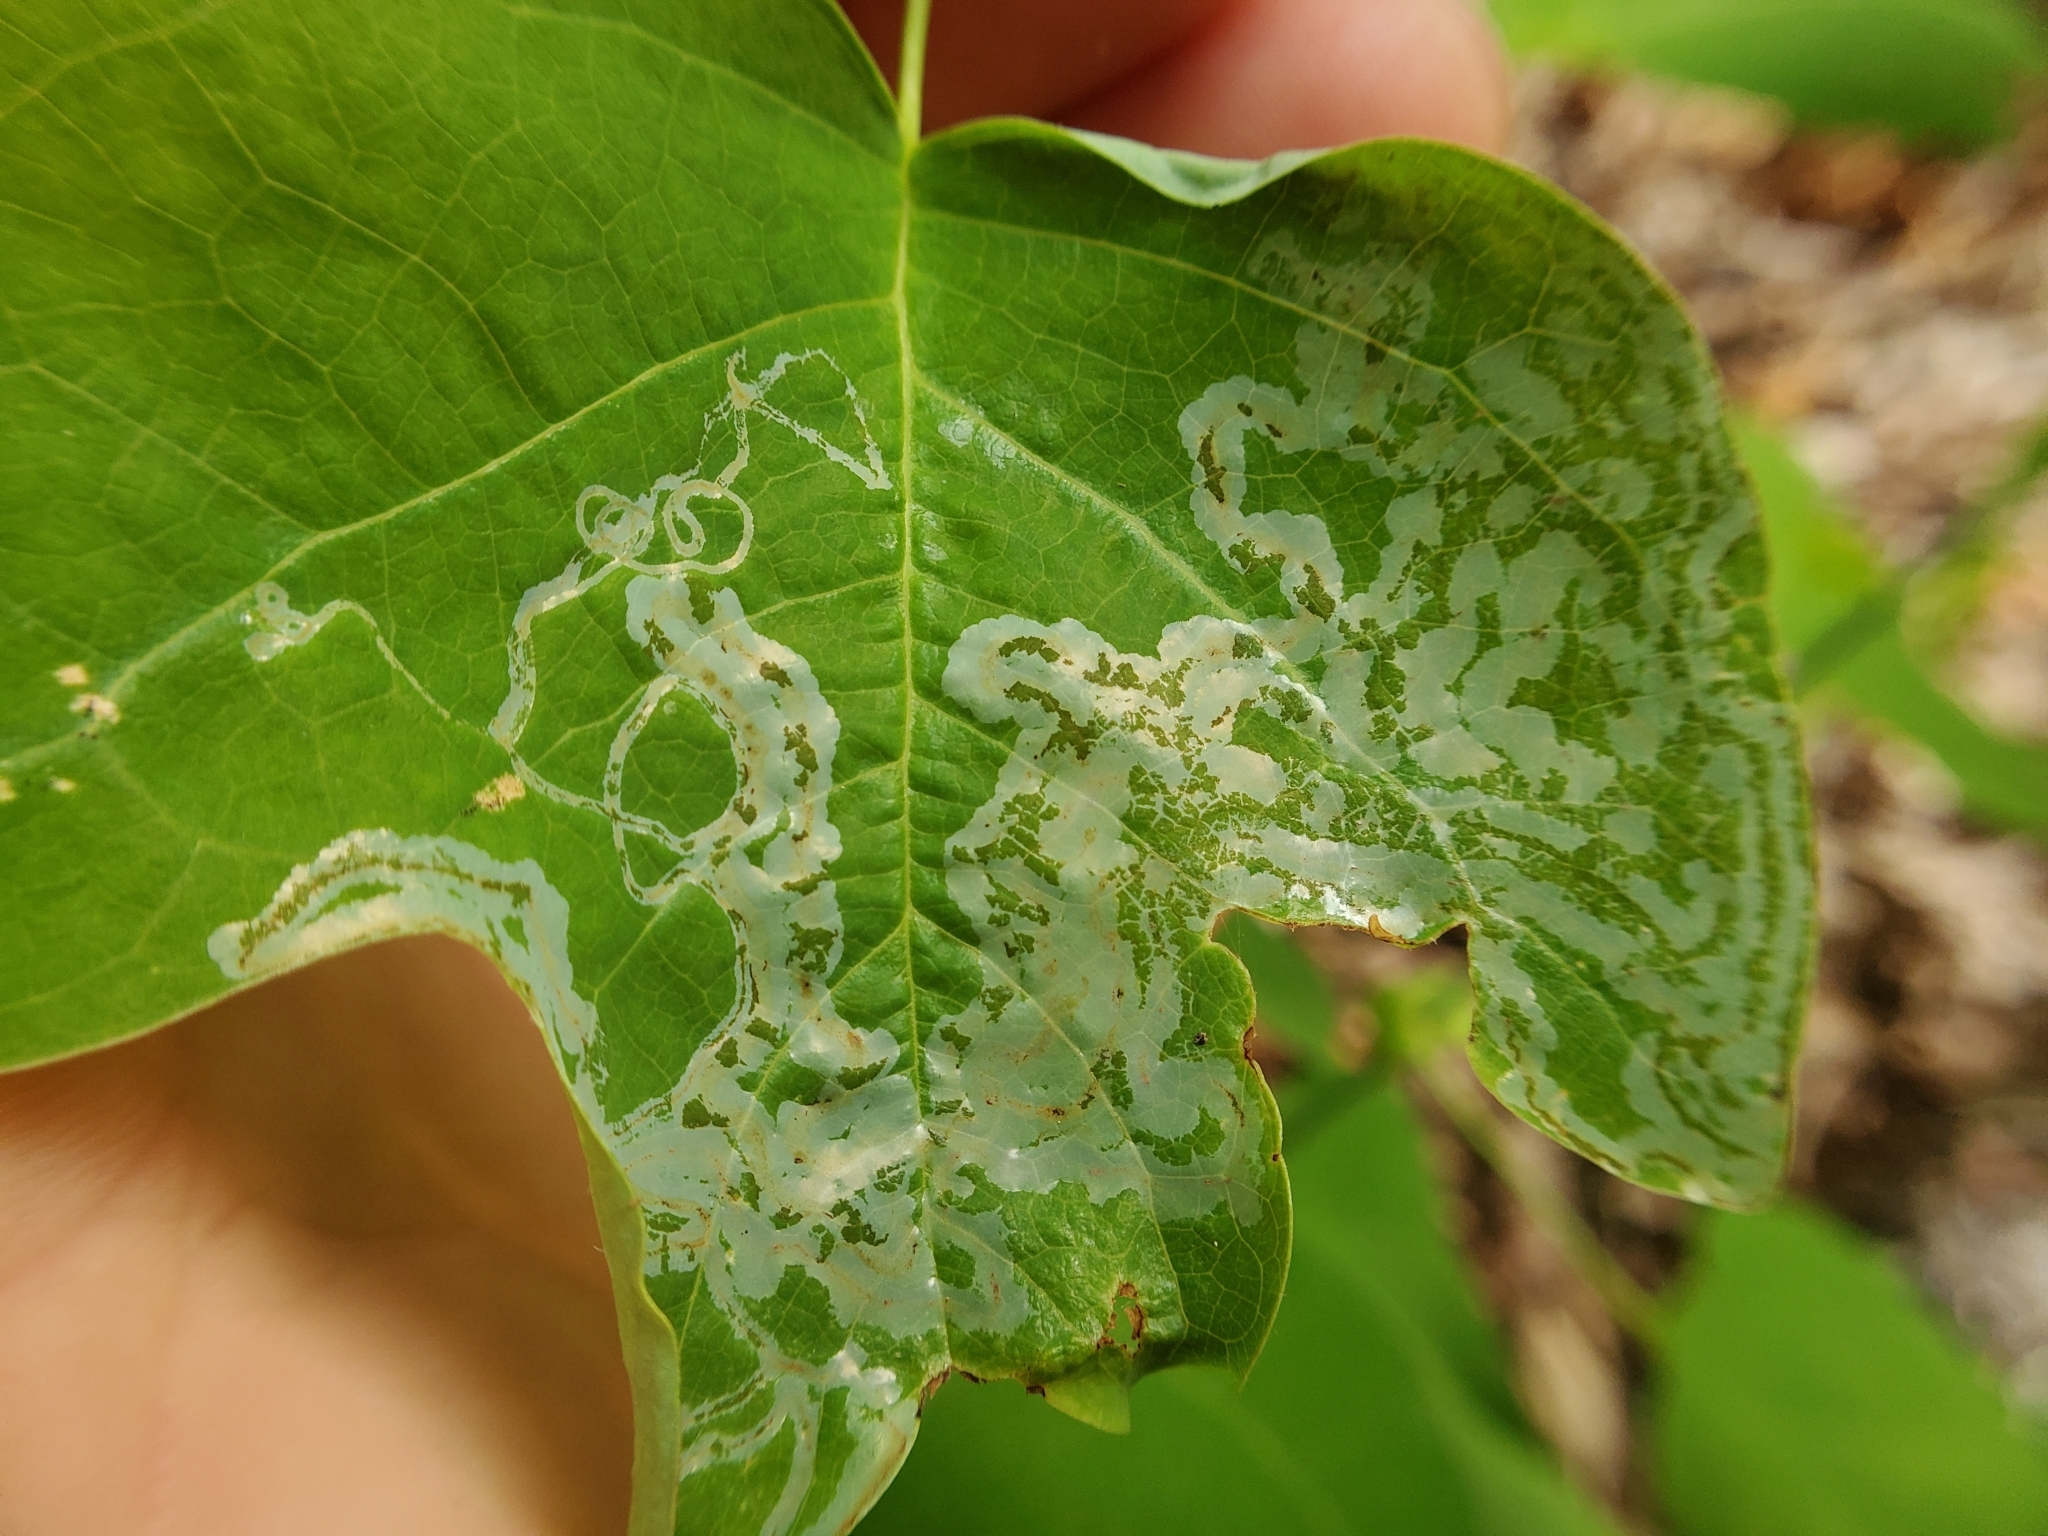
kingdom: Animalia
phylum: Arthropoda
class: Insecta
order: Lepidoptera
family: Gracillariidae
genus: Phyllocnistis
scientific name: Phyllocnistis liriodendronella
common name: Tulip tree leaf miner
